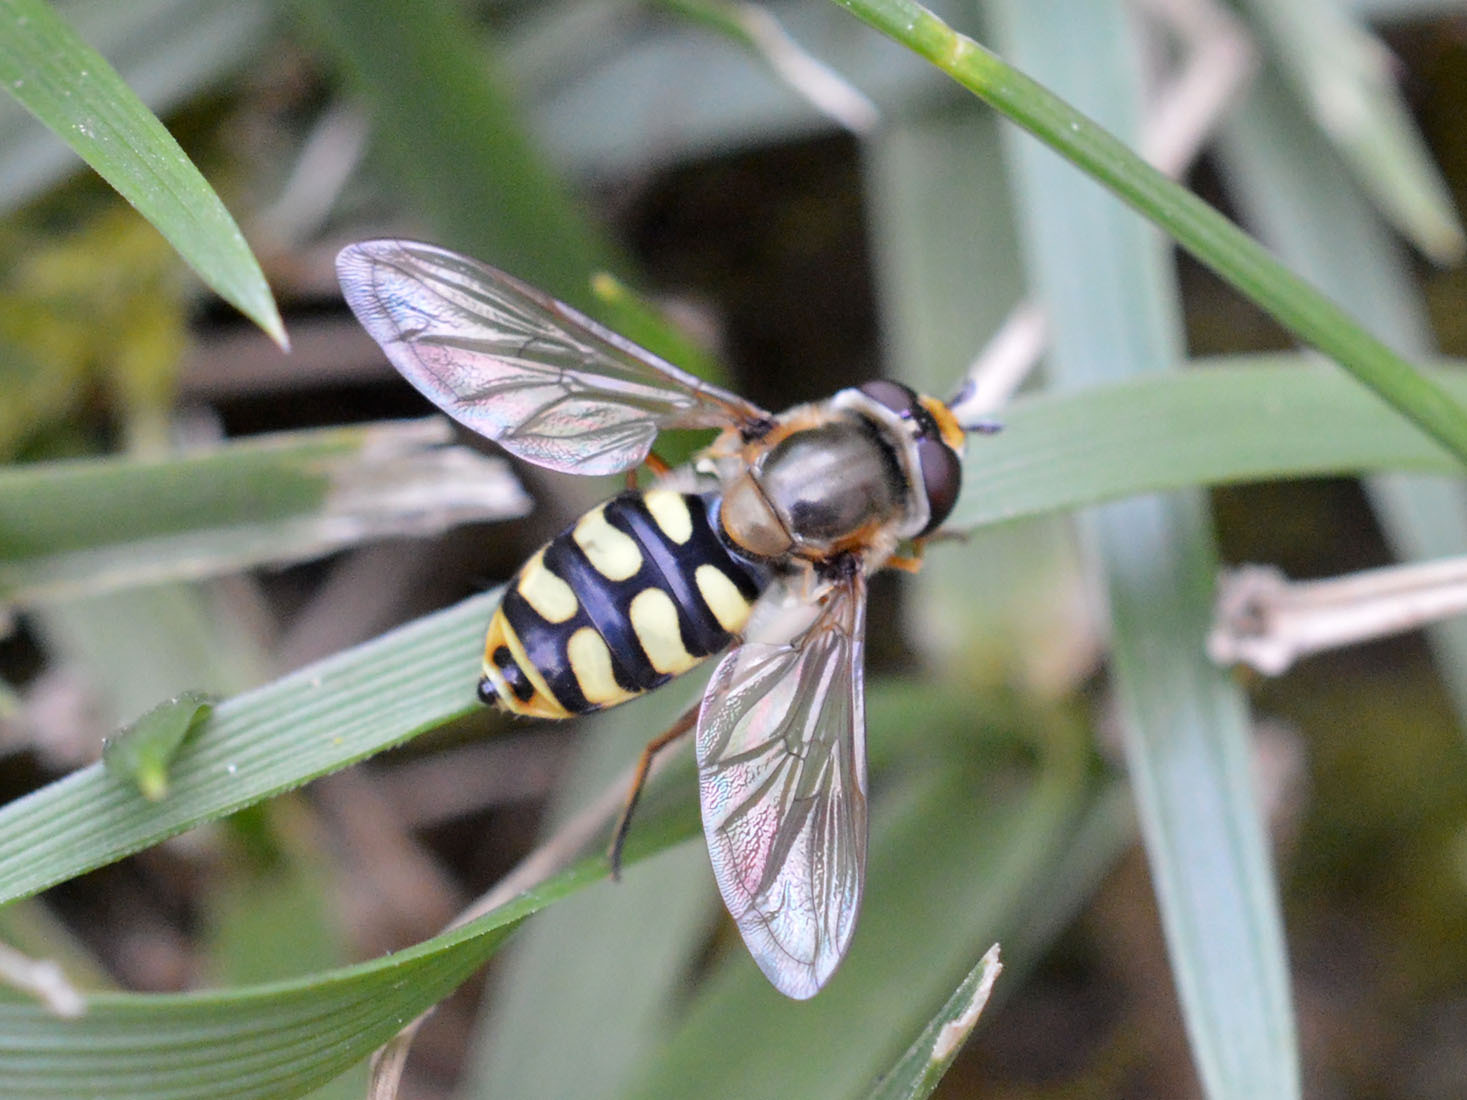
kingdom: Animalia
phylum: Arthropoda
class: Insecta
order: Diptera
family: Syrphidae
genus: Eupeodes
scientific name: Eupeodes corollae
